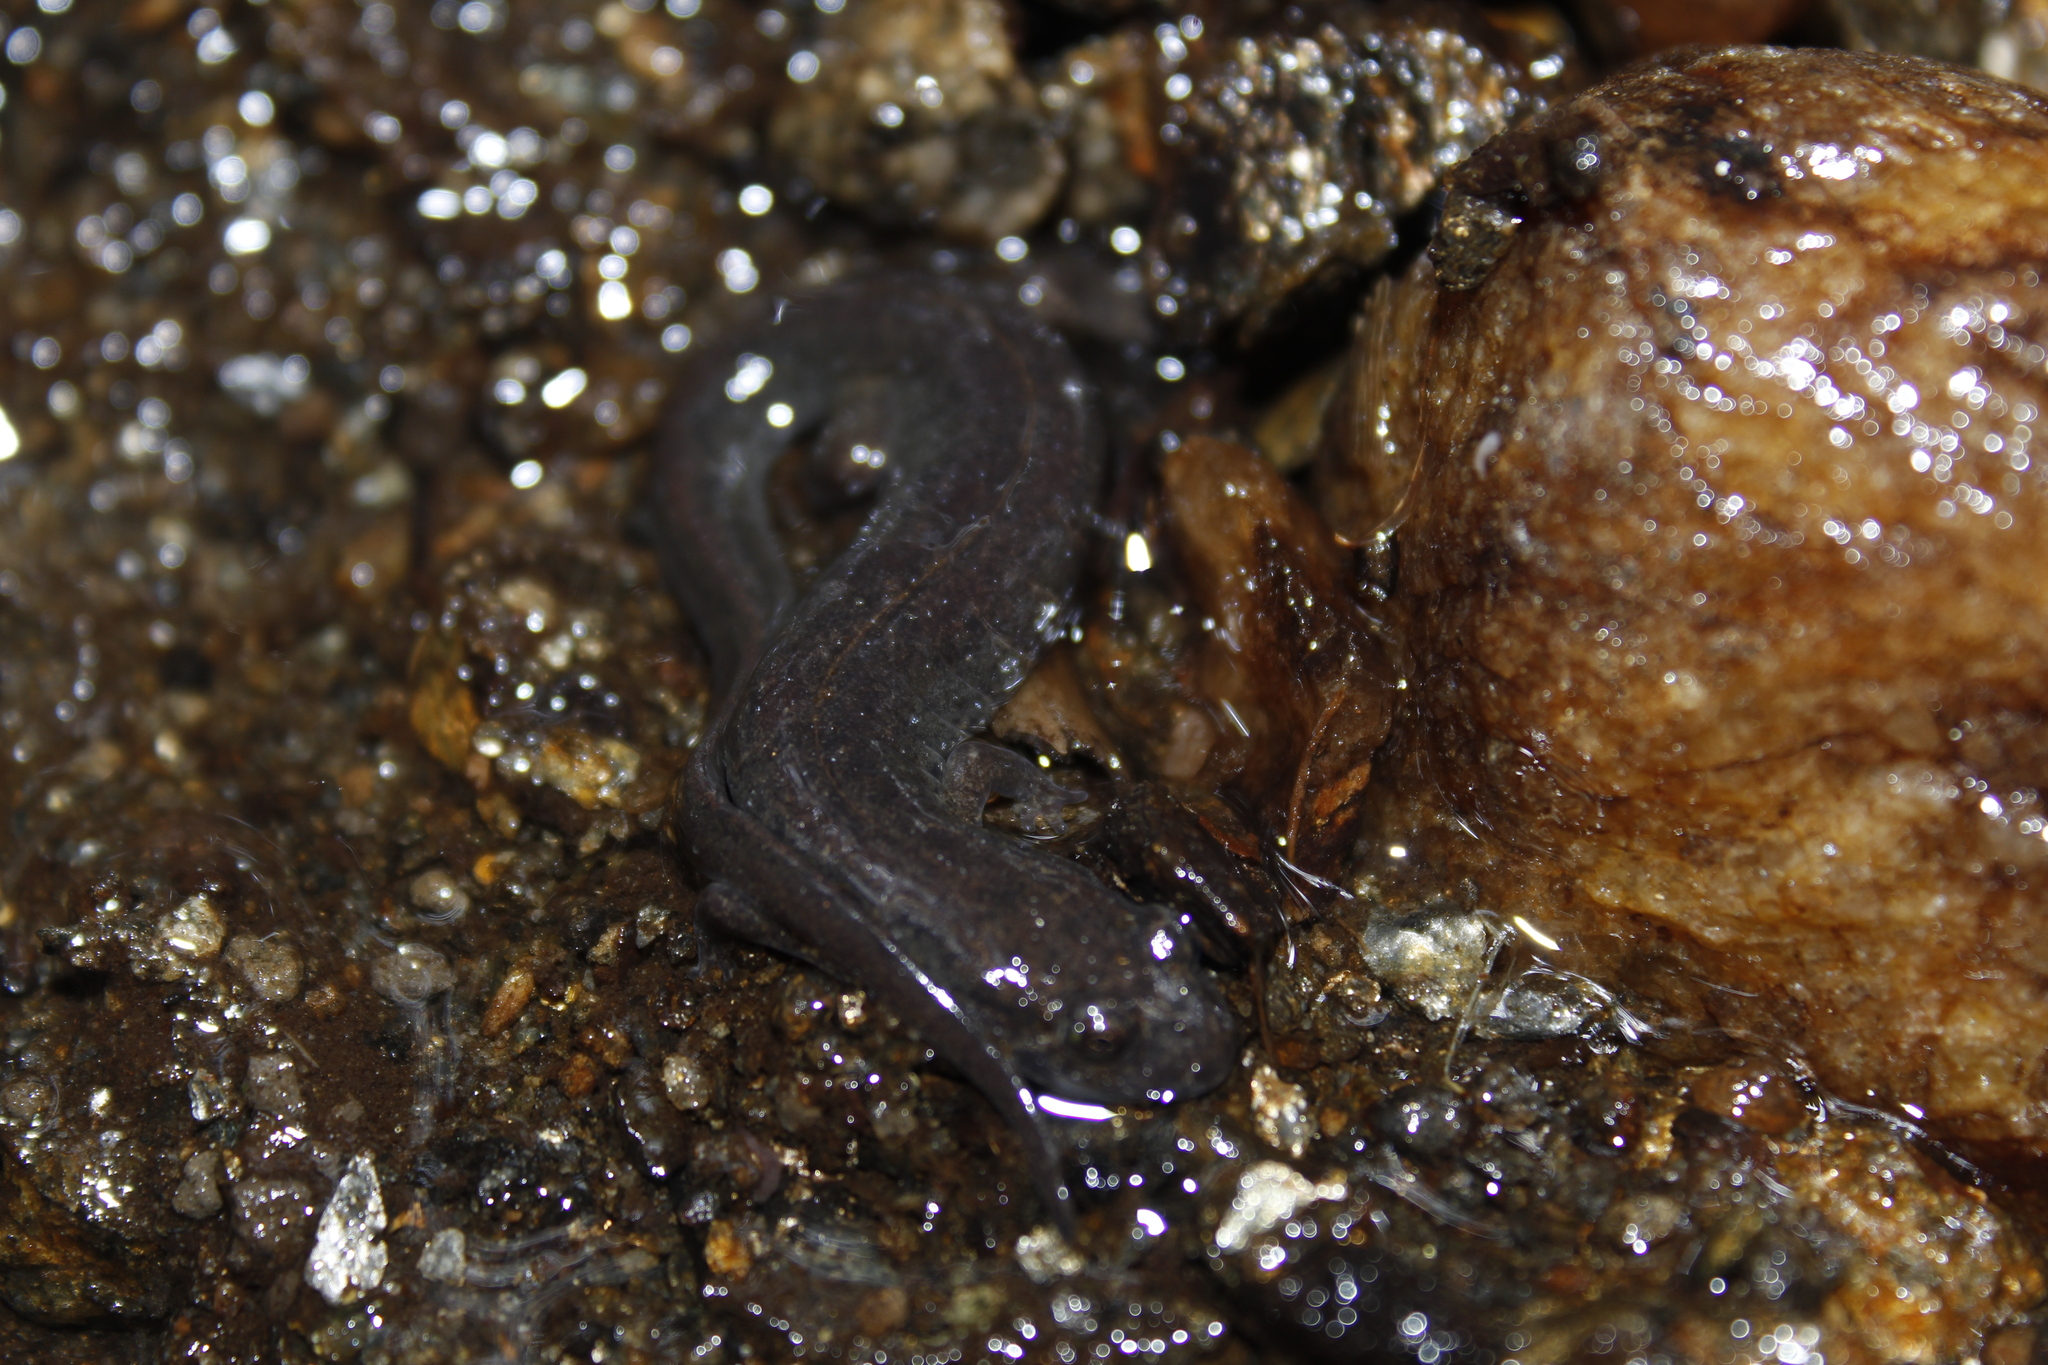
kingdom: Animalia
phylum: Chordata
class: Amphibia
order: Caudata
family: Plethodontidae
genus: Desmognathus
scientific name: Desmognathus fuscus
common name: Northern dusky salamander
